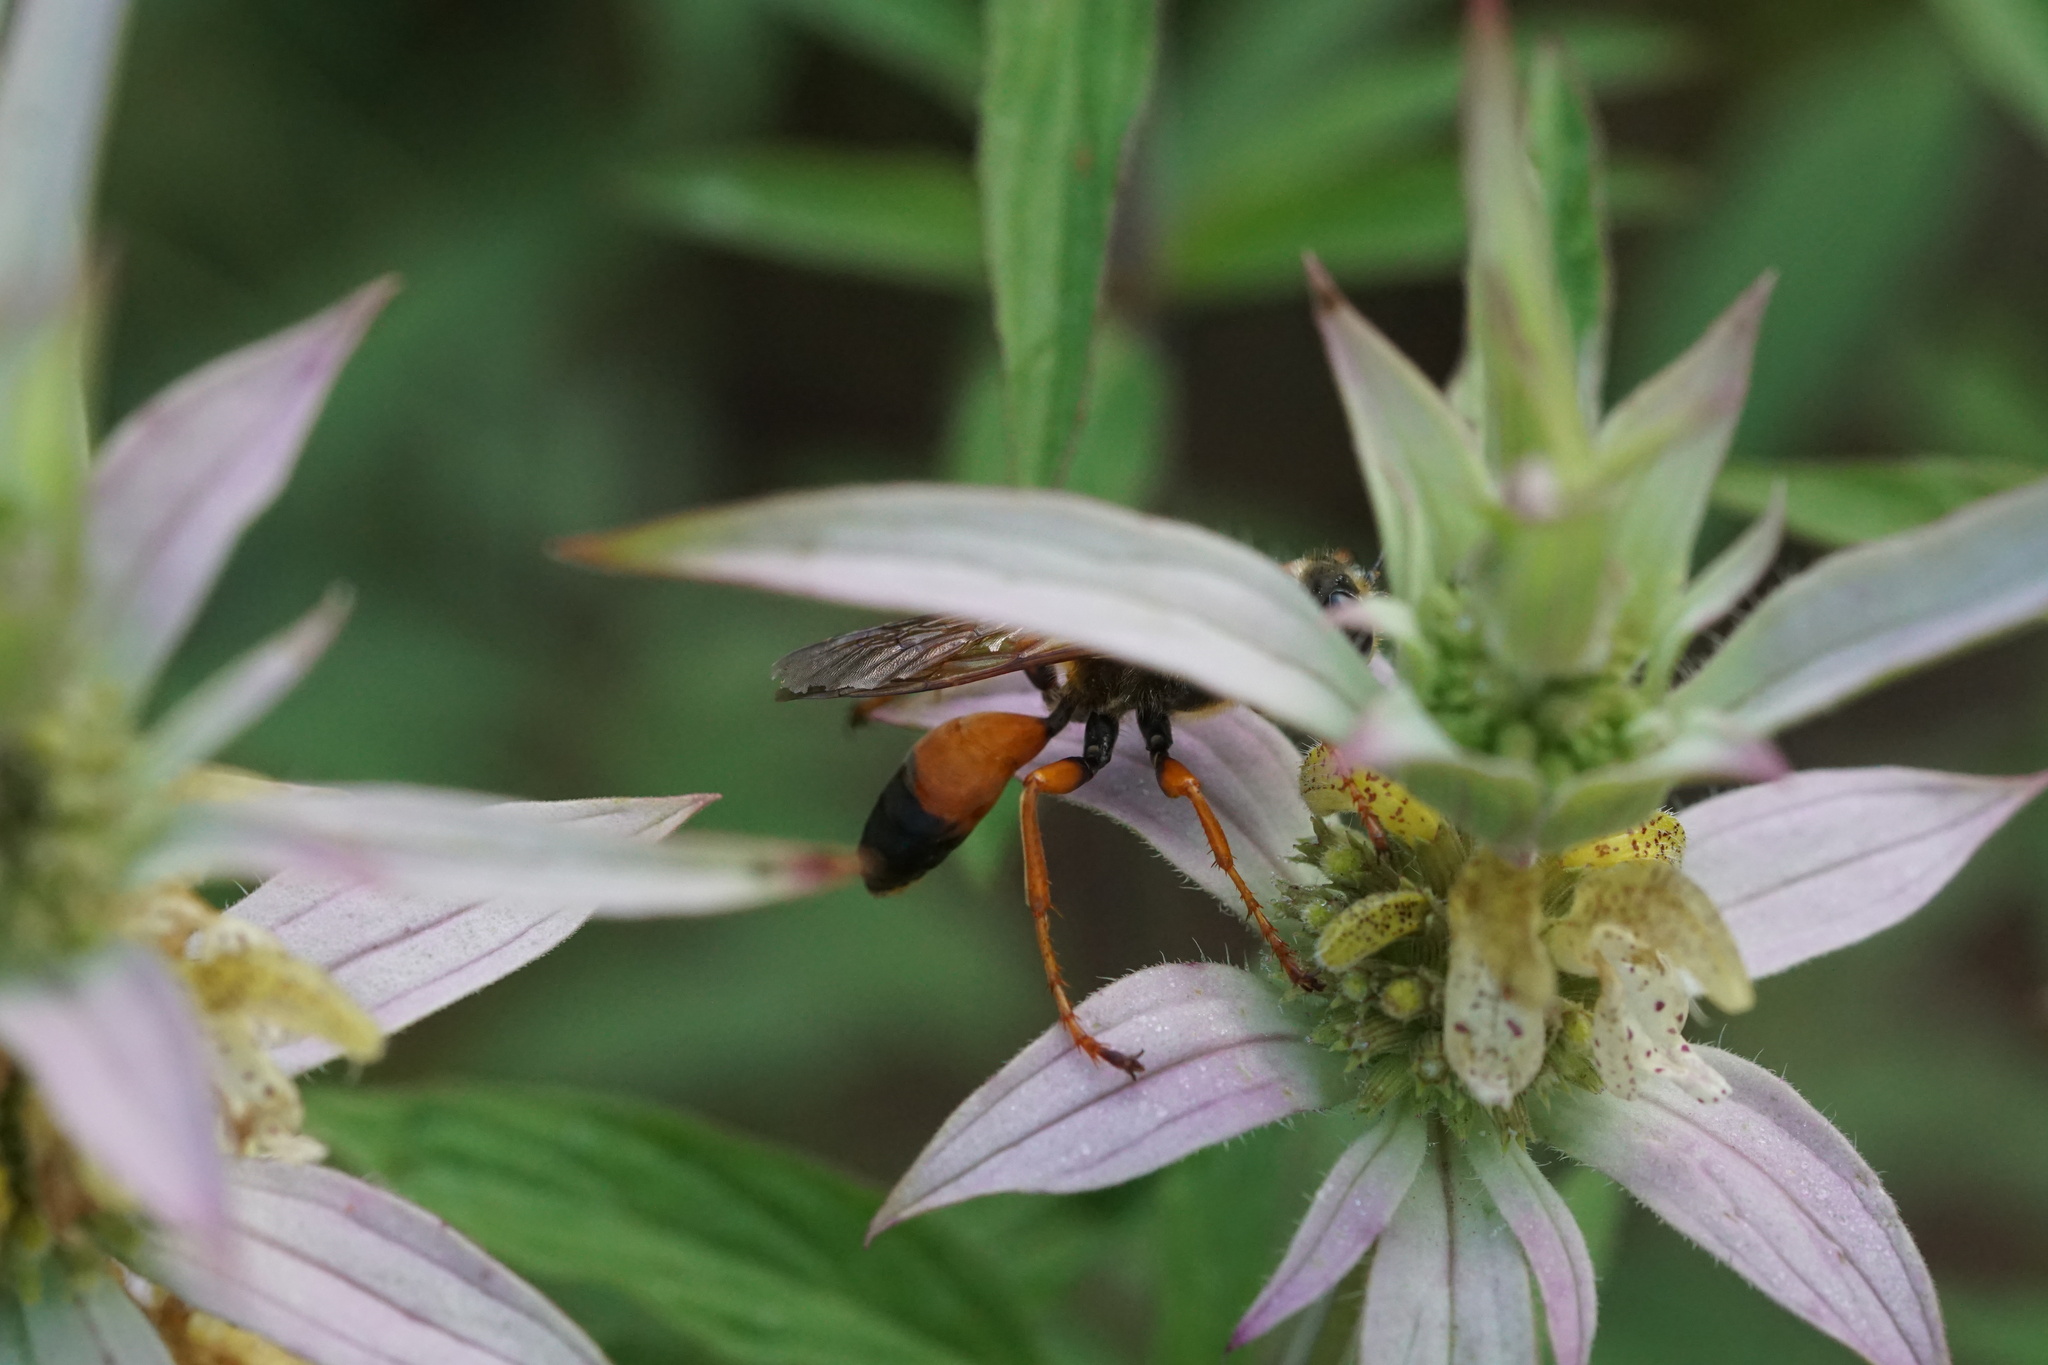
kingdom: Animalia
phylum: Arthropoda
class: Insecta
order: Hymenoptera
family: Sphecidae
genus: Sphex
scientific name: Sphex ichneumoneus
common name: Great golden digger wasp
